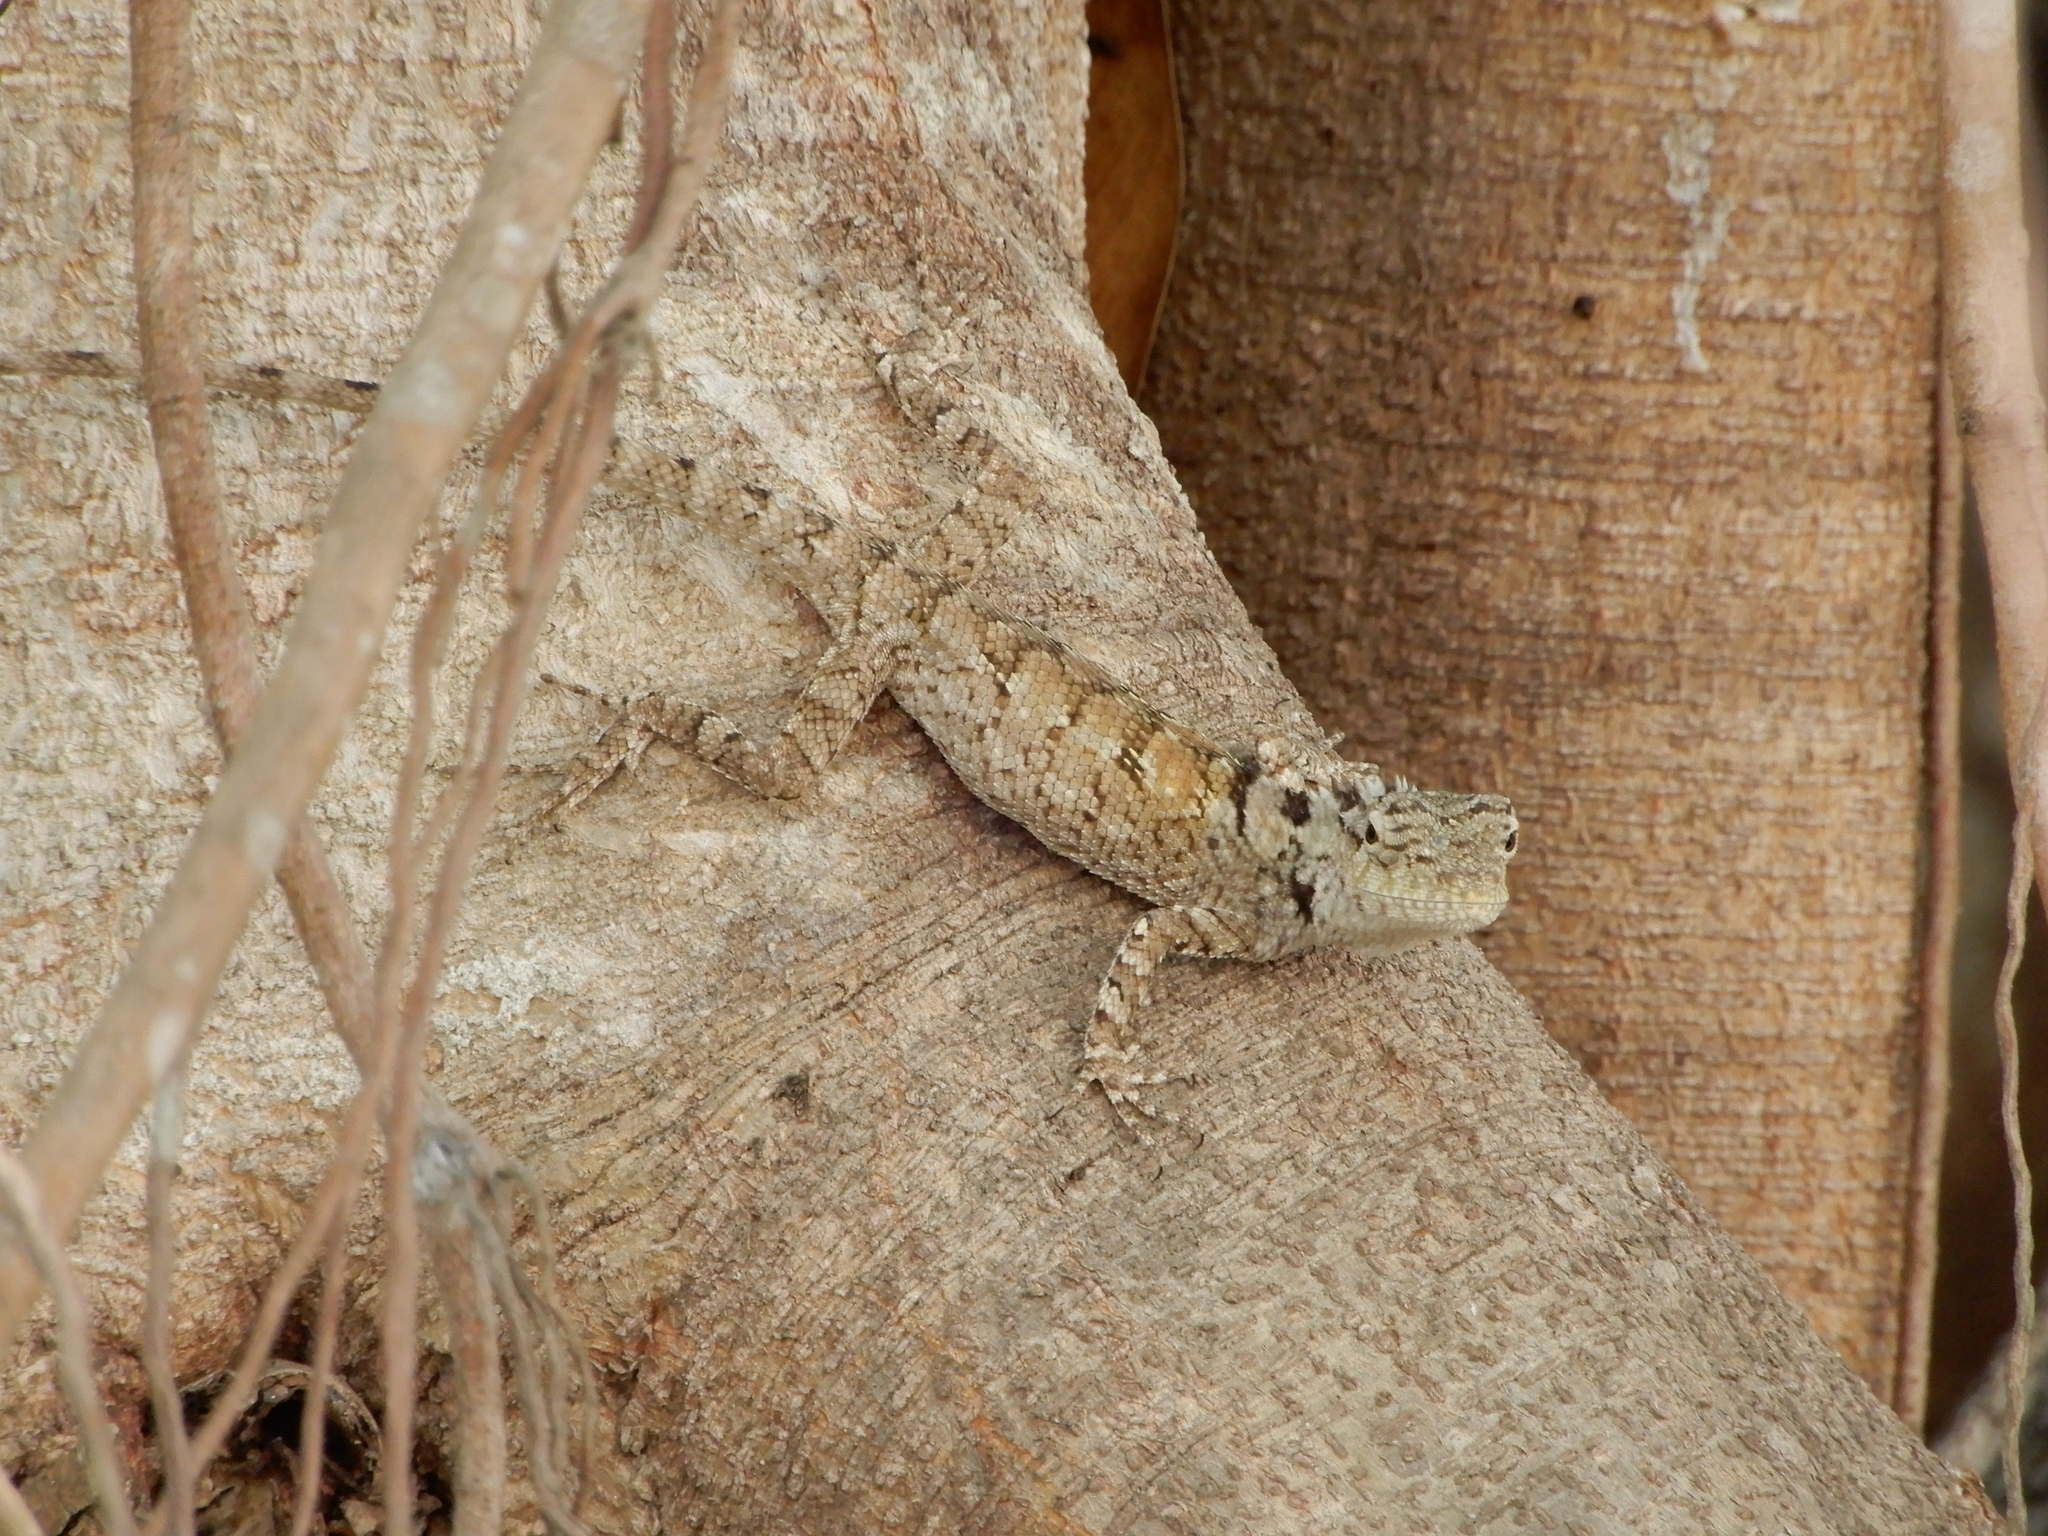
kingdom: Animalia
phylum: Chordata
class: Squamata
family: Agamidae
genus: Calotes
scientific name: Calotes goetzi
